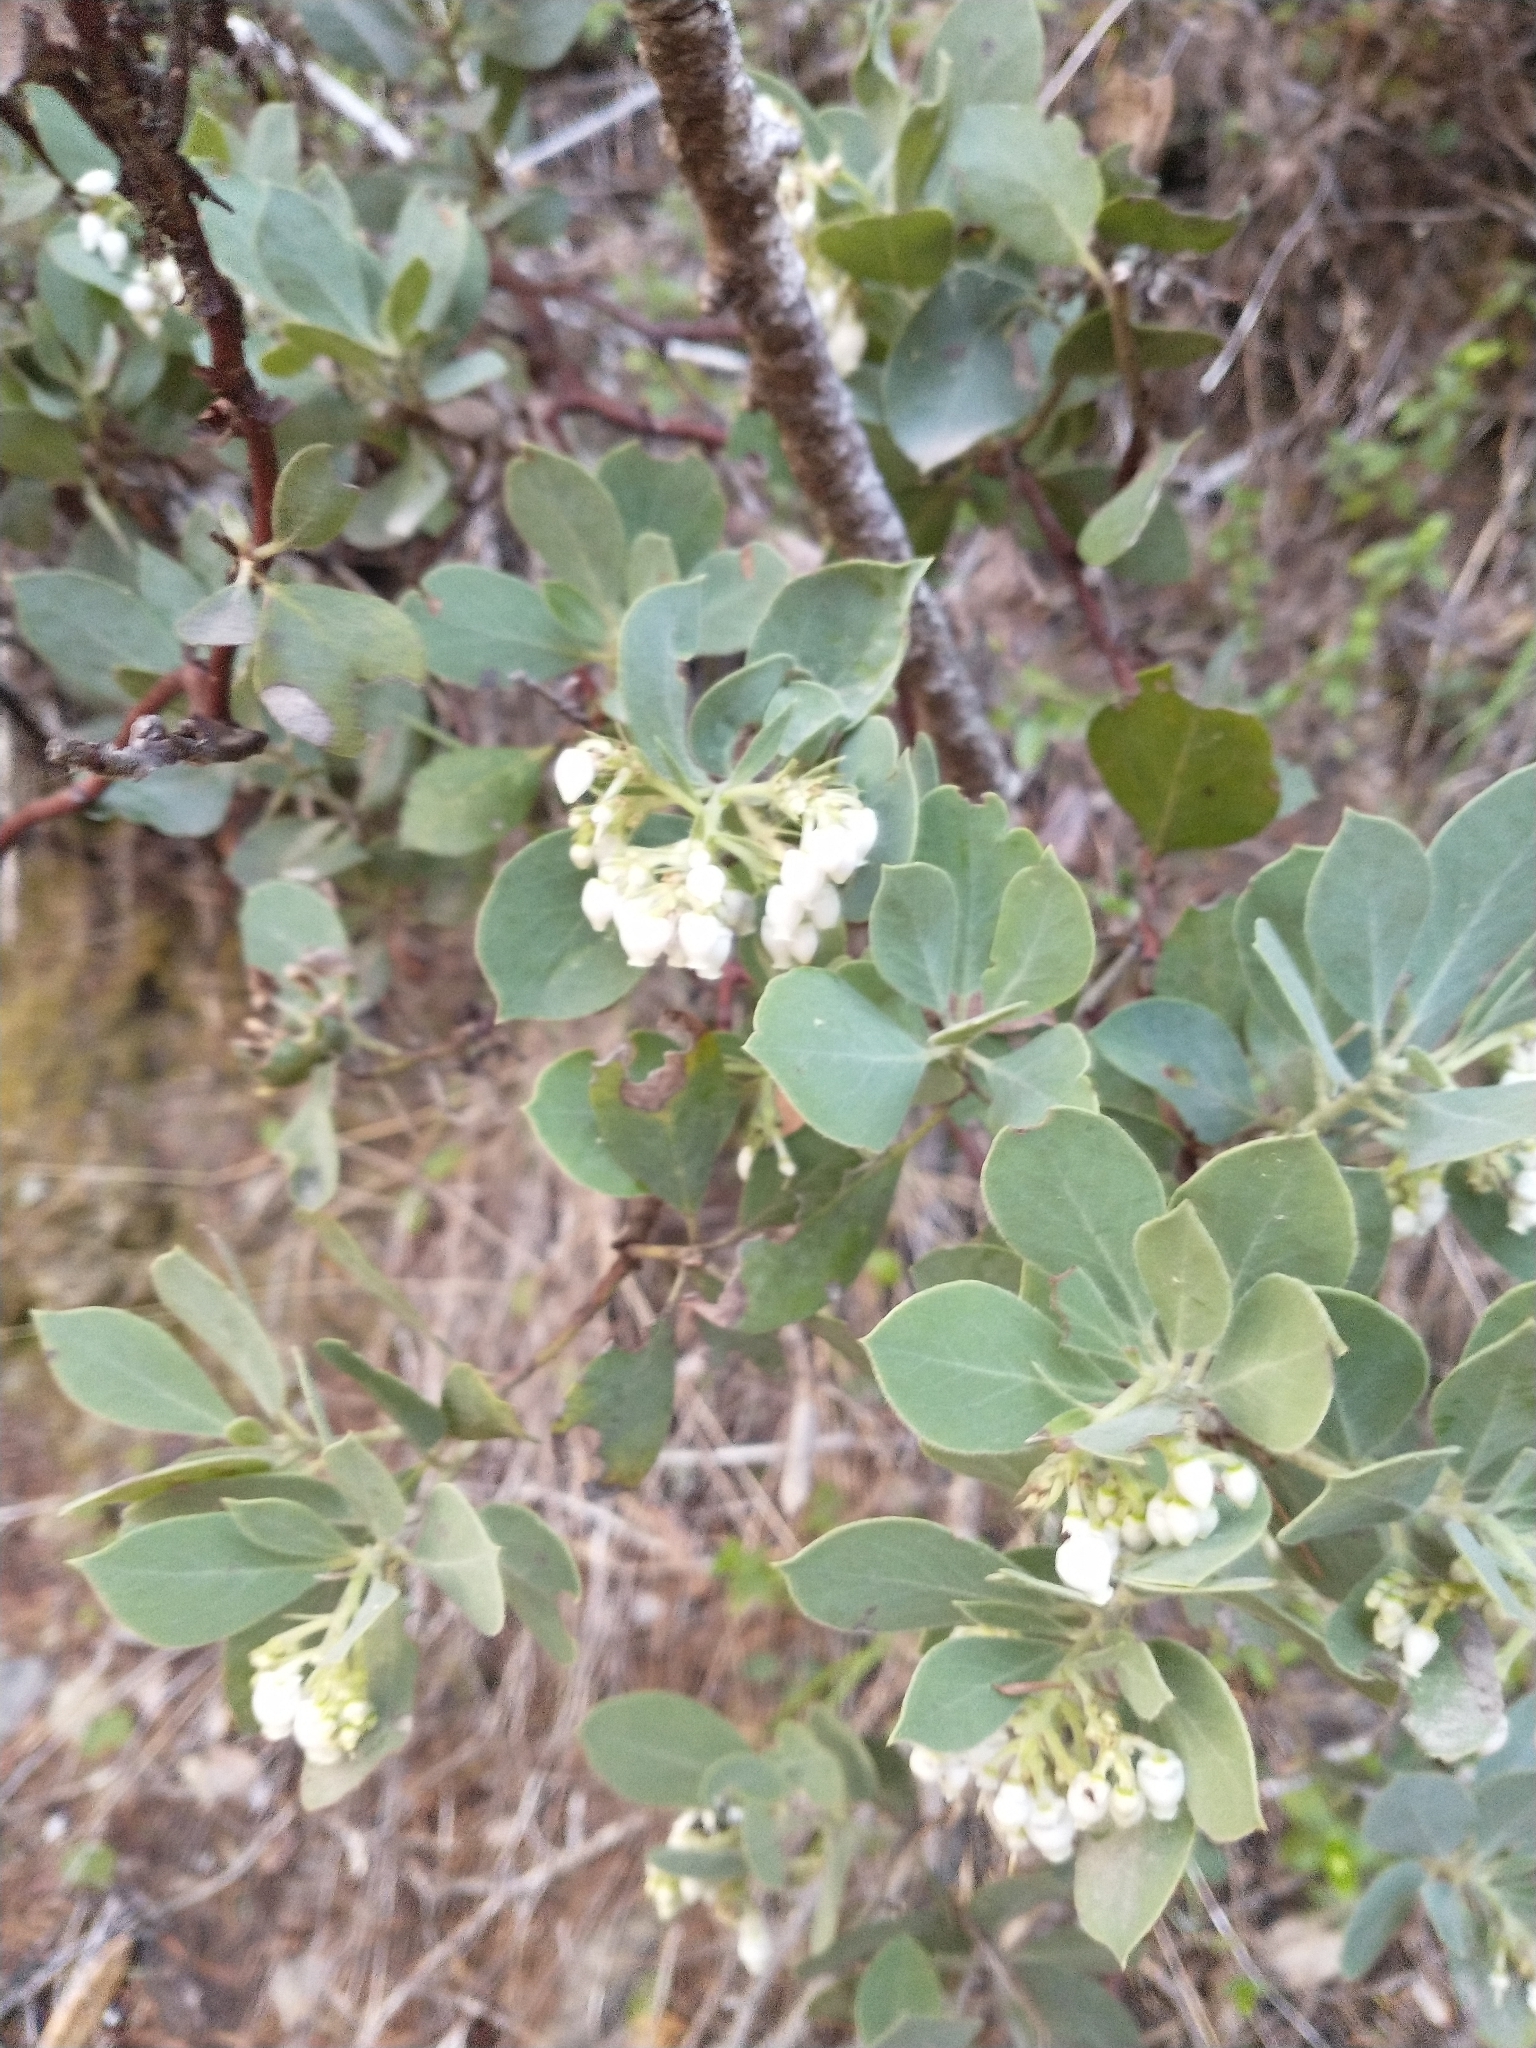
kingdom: Plantae
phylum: Tracheophyta
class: Magnoliopsida
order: Ericales
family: Ericaceae
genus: Arctostaphylos
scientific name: Arctostaphylos columbiana
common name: Bristly bearberry
